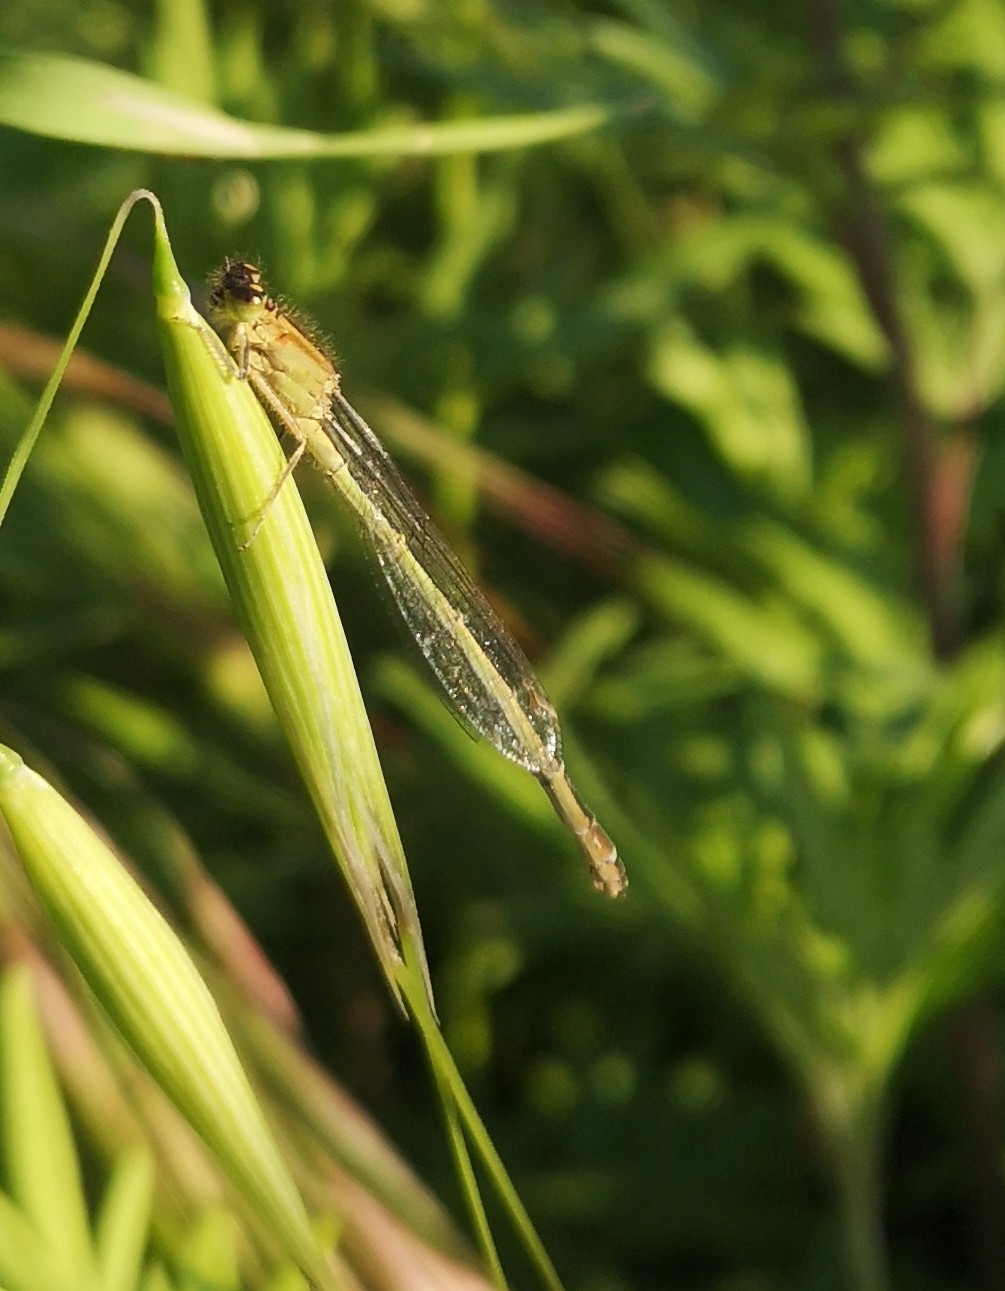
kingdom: Animalia
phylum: Arthropoda
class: Insecta
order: Odonata
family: Coenagrionidae
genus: Ischnura
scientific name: Ischnura elegans
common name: Blue-tailed damselfly
